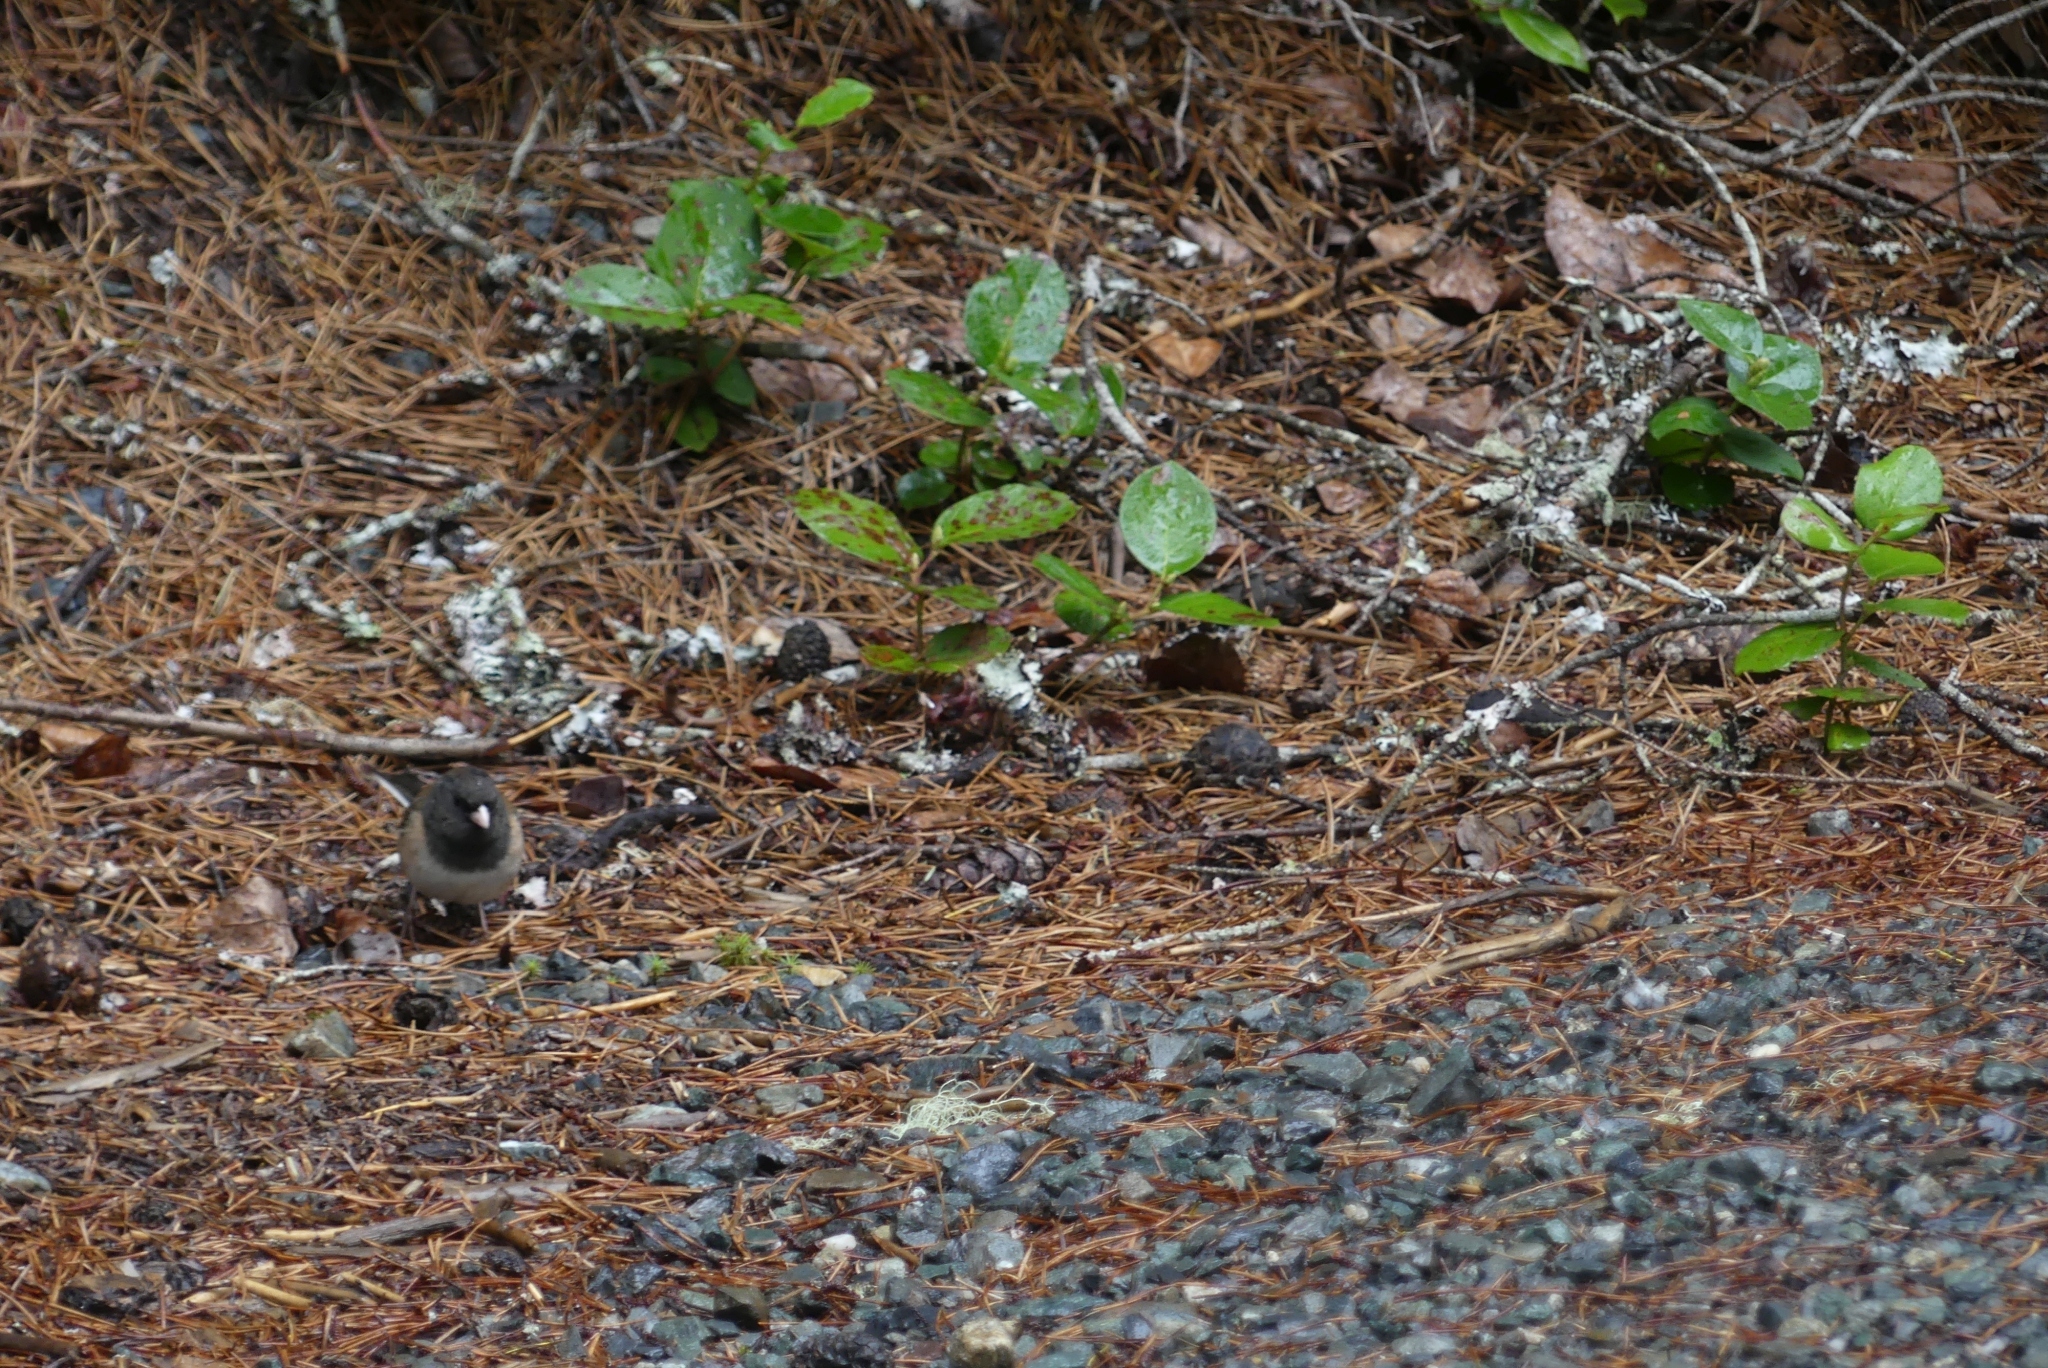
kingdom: Animalia
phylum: Chordata
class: Aves
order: Passeriformes
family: Passerellidae
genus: Junco
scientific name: Junco hyemalis
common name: Dark-eyed junco
